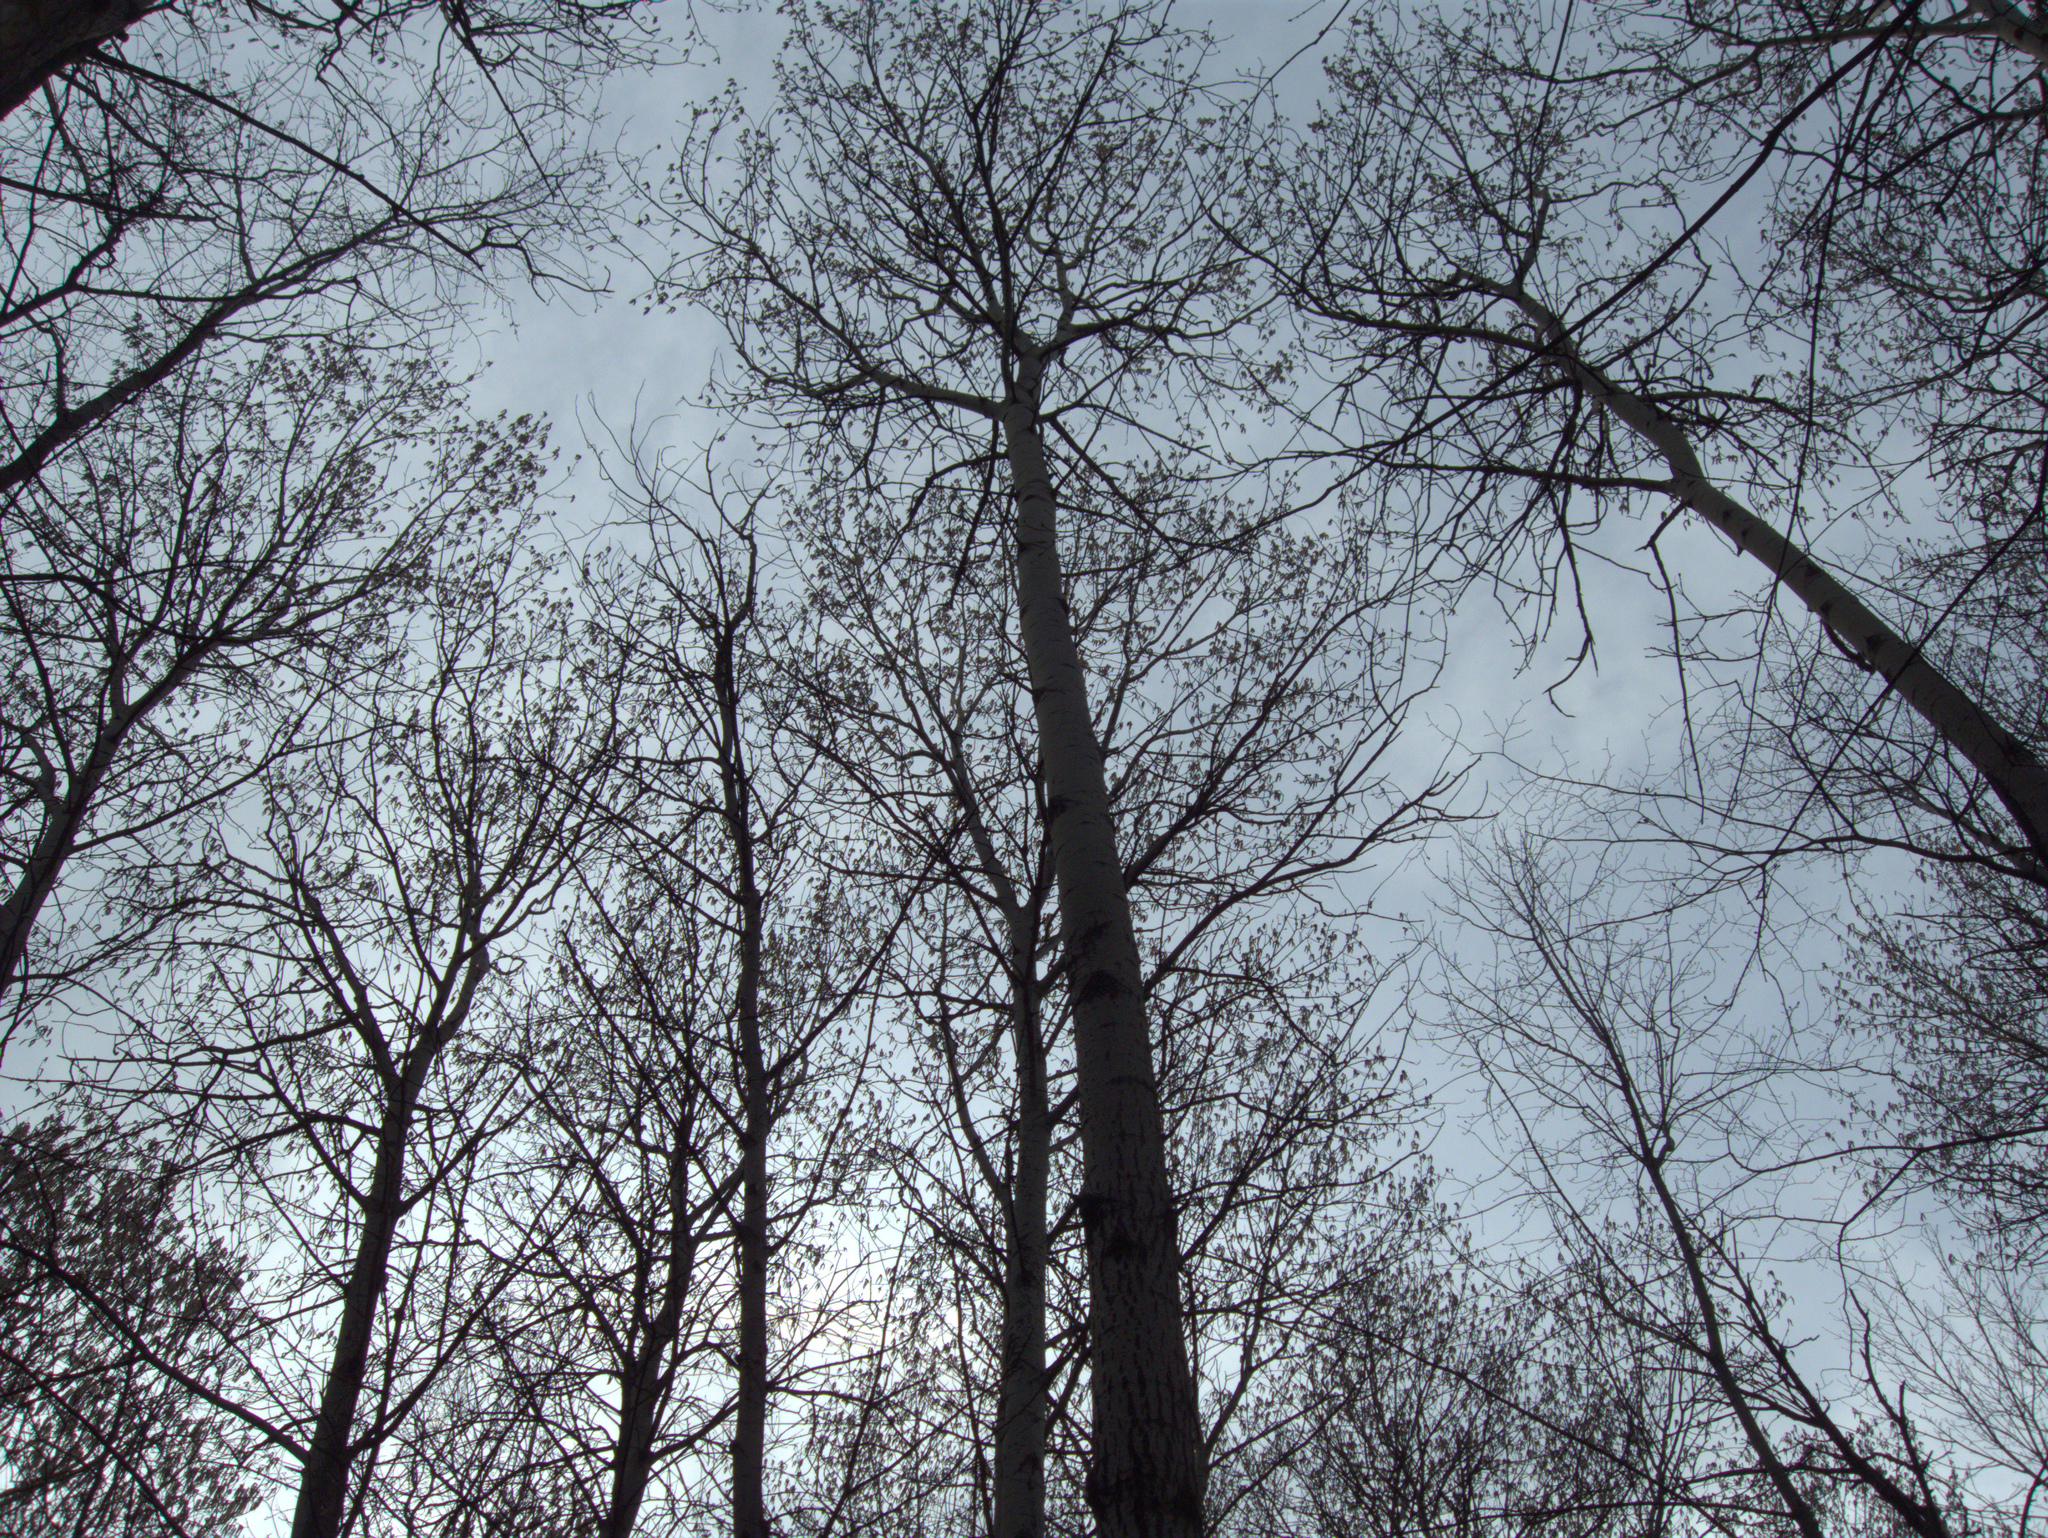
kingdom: Plantae
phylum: Tracheophyta
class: Magnoliopsida
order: Malpighiales
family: Salicaceae
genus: Populus
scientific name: Populus tremula
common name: European aspen
